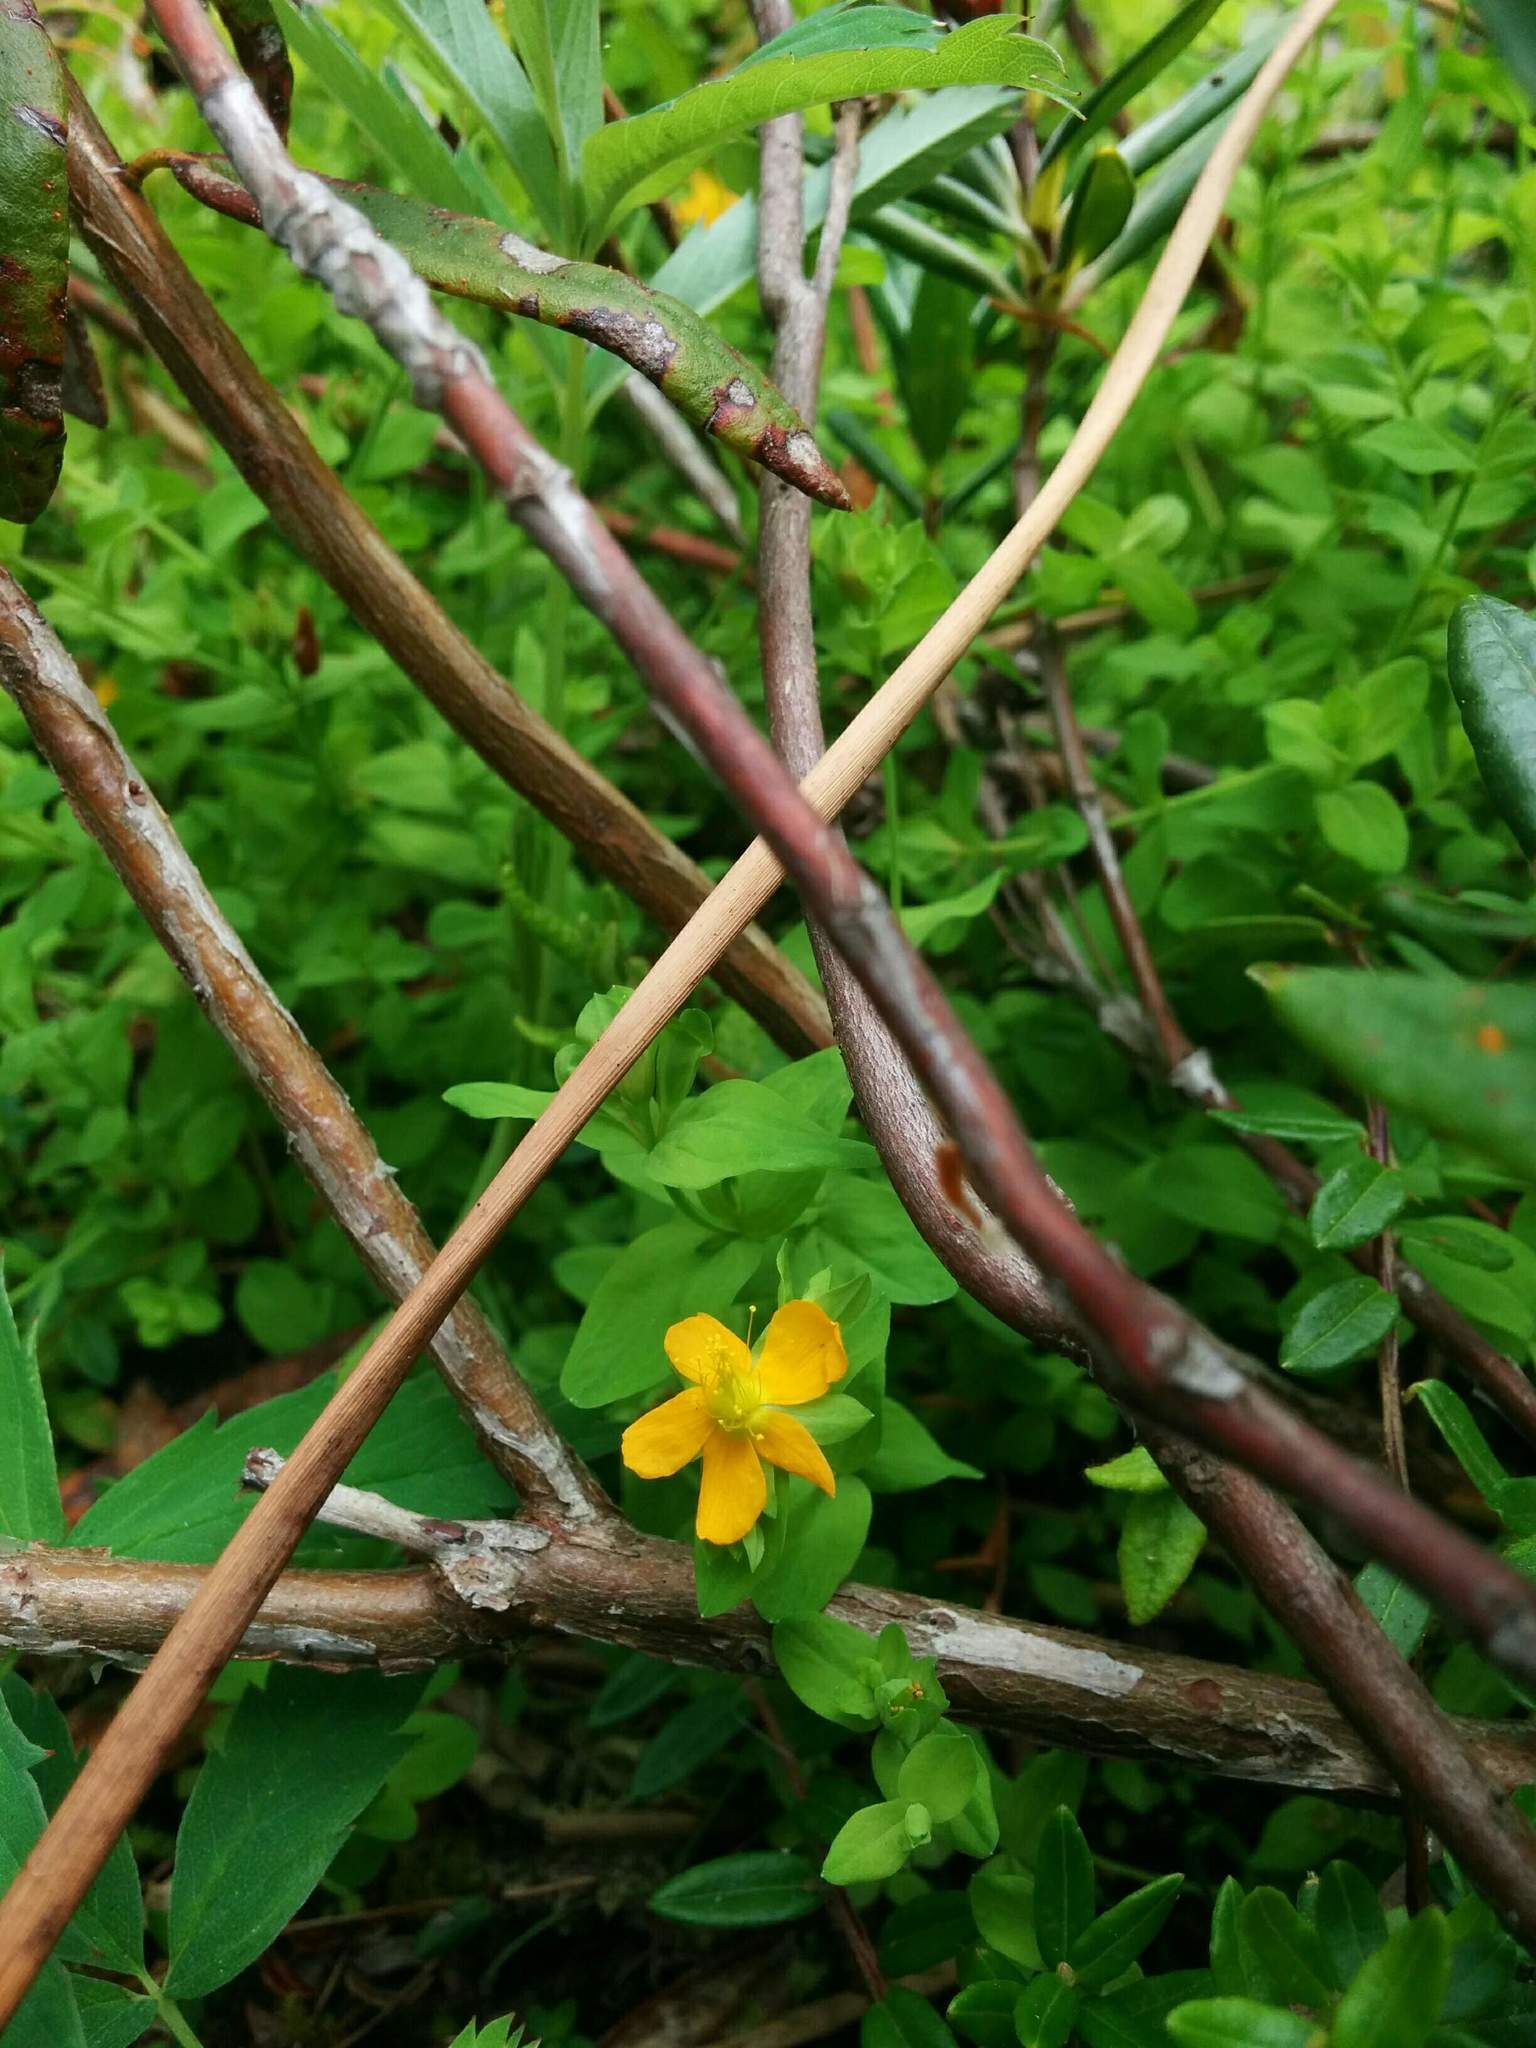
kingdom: Plantae
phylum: Tracheophyta
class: Magnoliopsida
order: Malpighiales
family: Hypericaceae
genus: Hypericum
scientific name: Hypericum anagalloides
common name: Bog st. john's-wort
